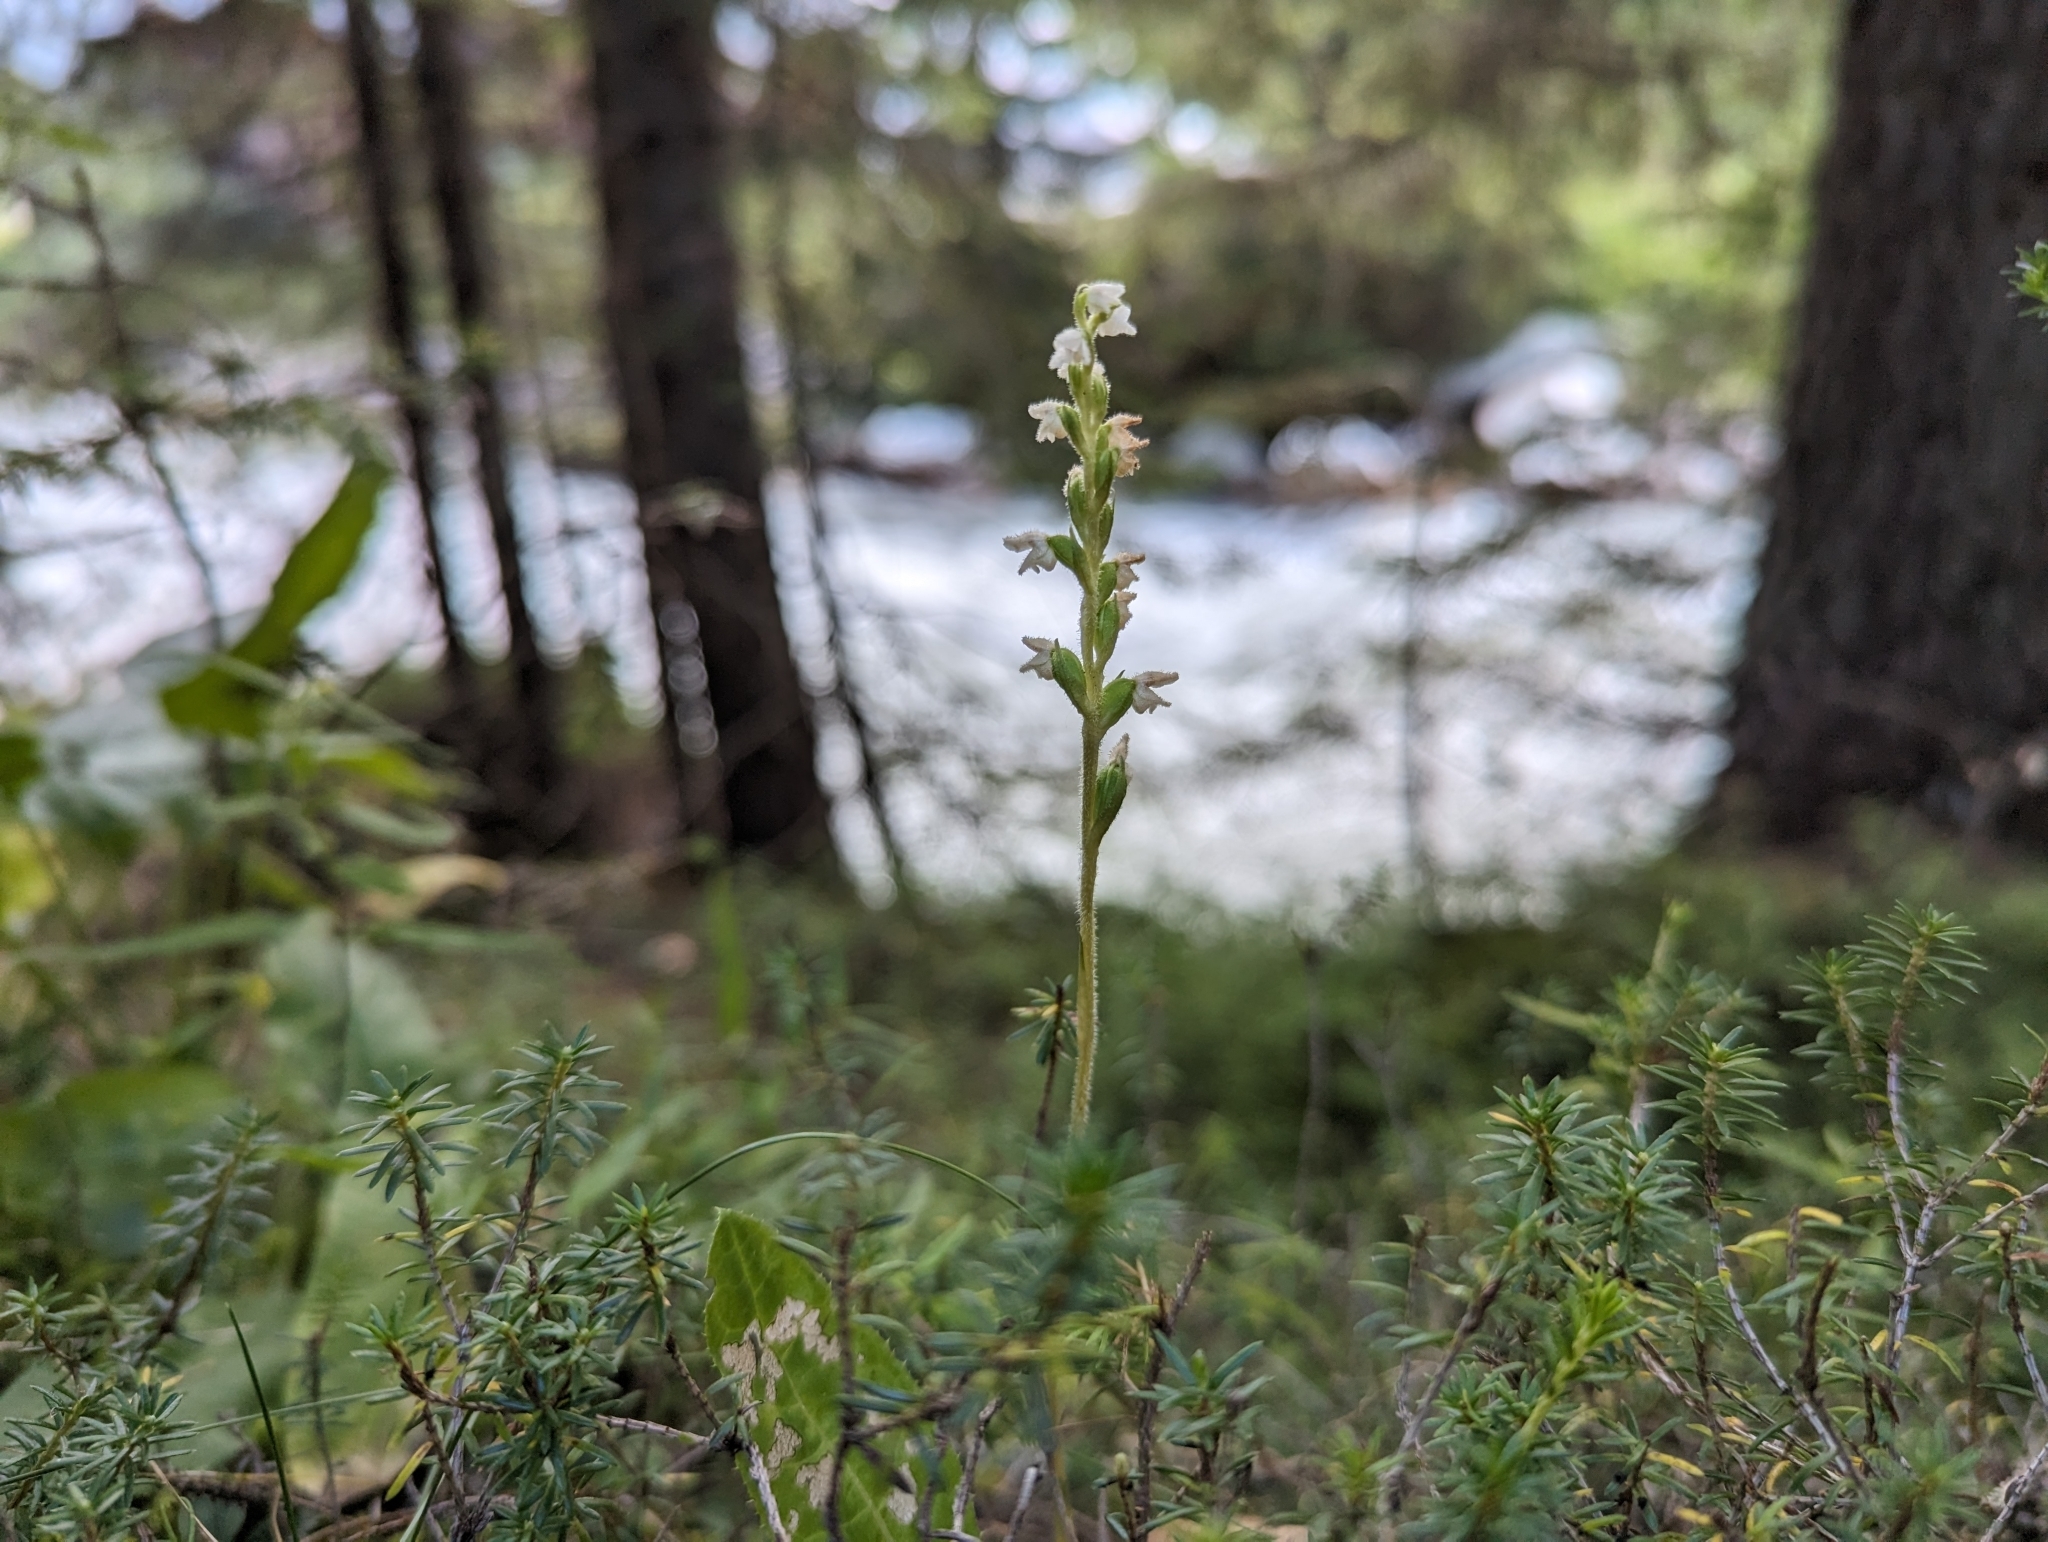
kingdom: Plantae
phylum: Tracheophyta
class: Liliopsida
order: Asparagales
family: Orchidaceae
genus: Goodyera
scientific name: Goodyera repens
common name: Creeping lady's-tresses
